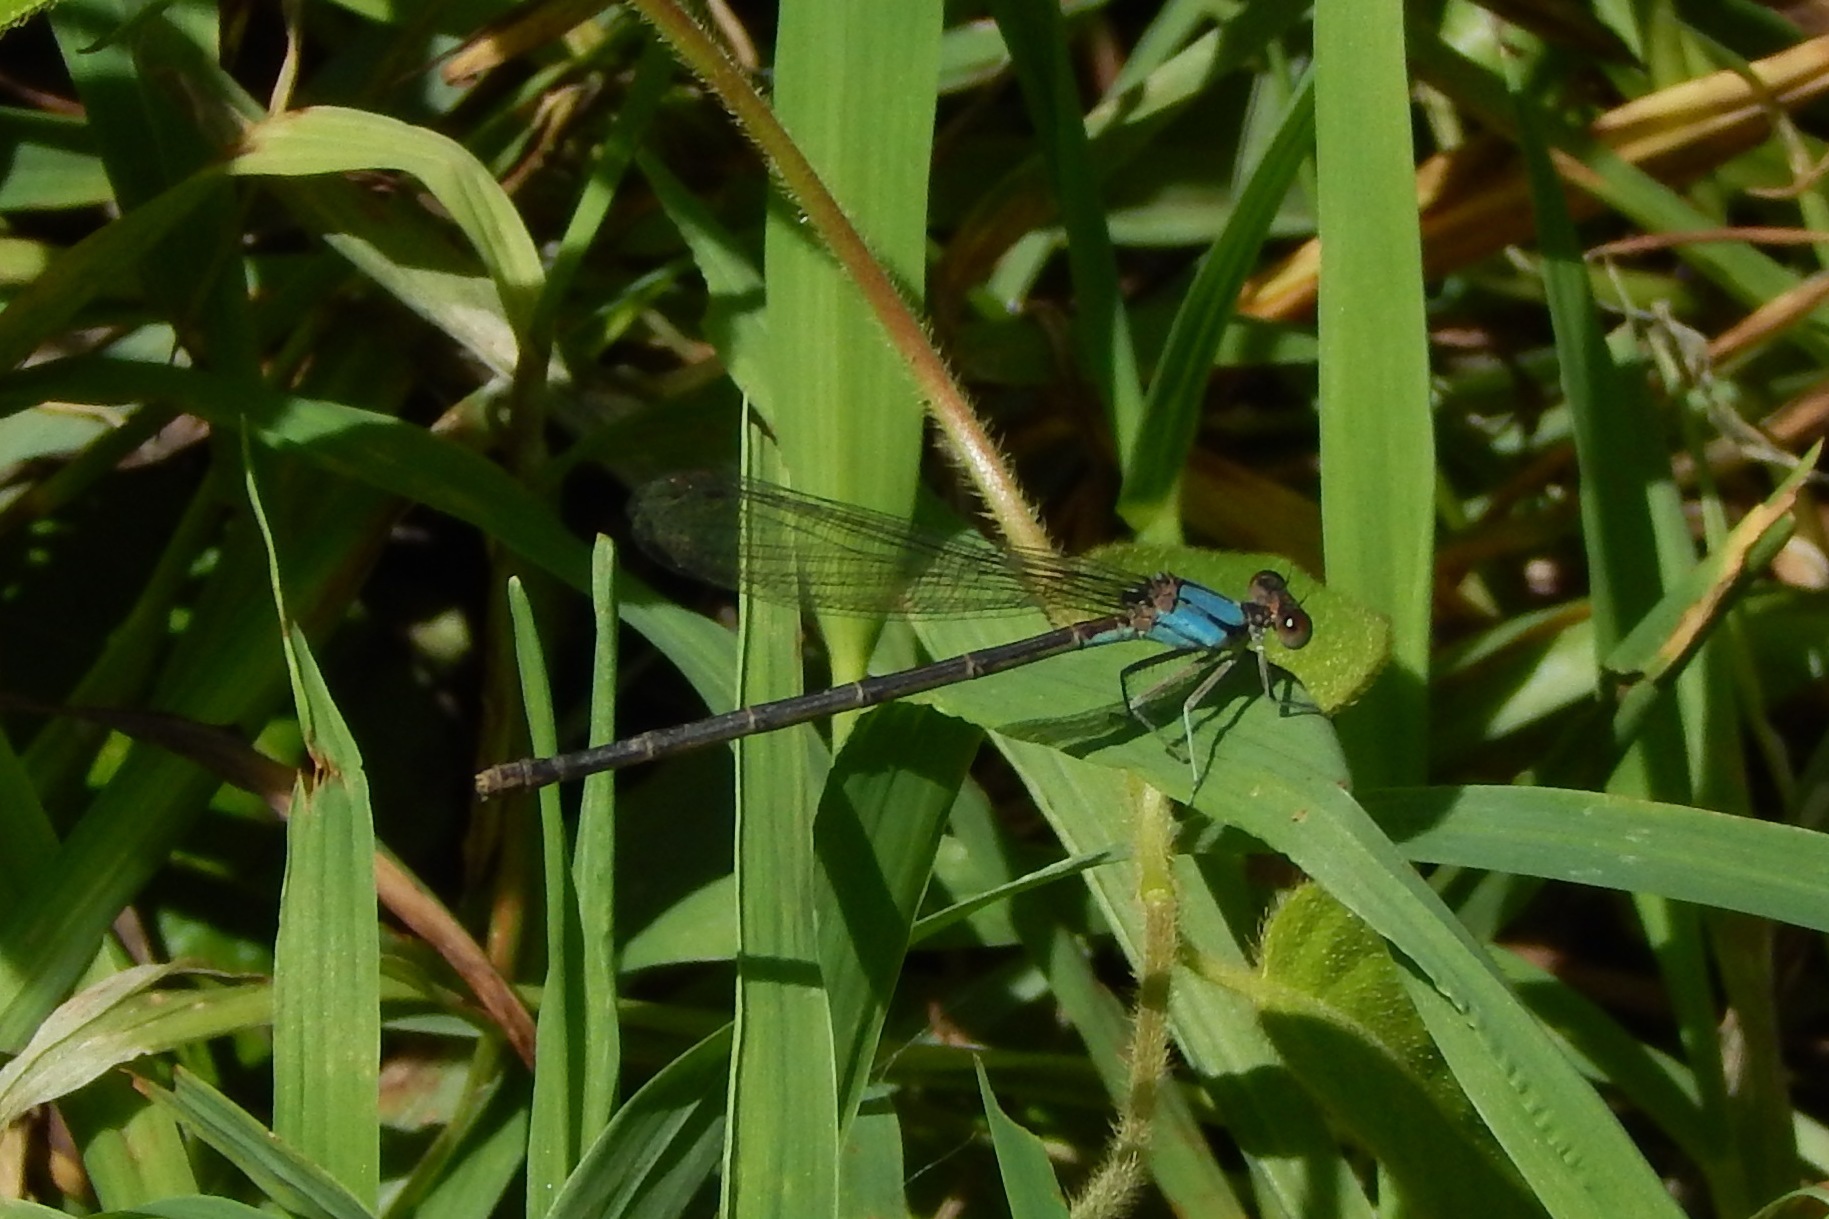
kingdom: Animalia
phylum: Arthropoda
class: Insecta
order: Odonata
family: Coenagrionidae
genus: Argia
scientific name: Argia apicalis
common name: Blue-fronted dancer
